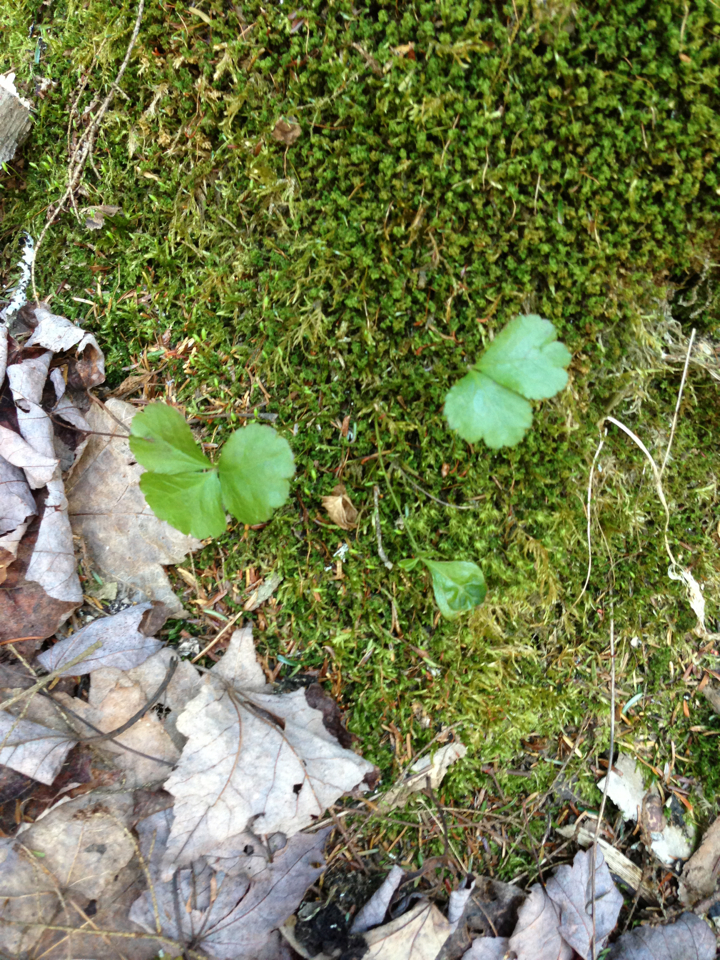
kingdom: Plantae
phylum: Tracheophyta
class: Magnoliopsida
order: Ranunculales
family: Ranunculaceae
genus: Coptis
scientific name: Coptis trifolia
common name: Canker-root
